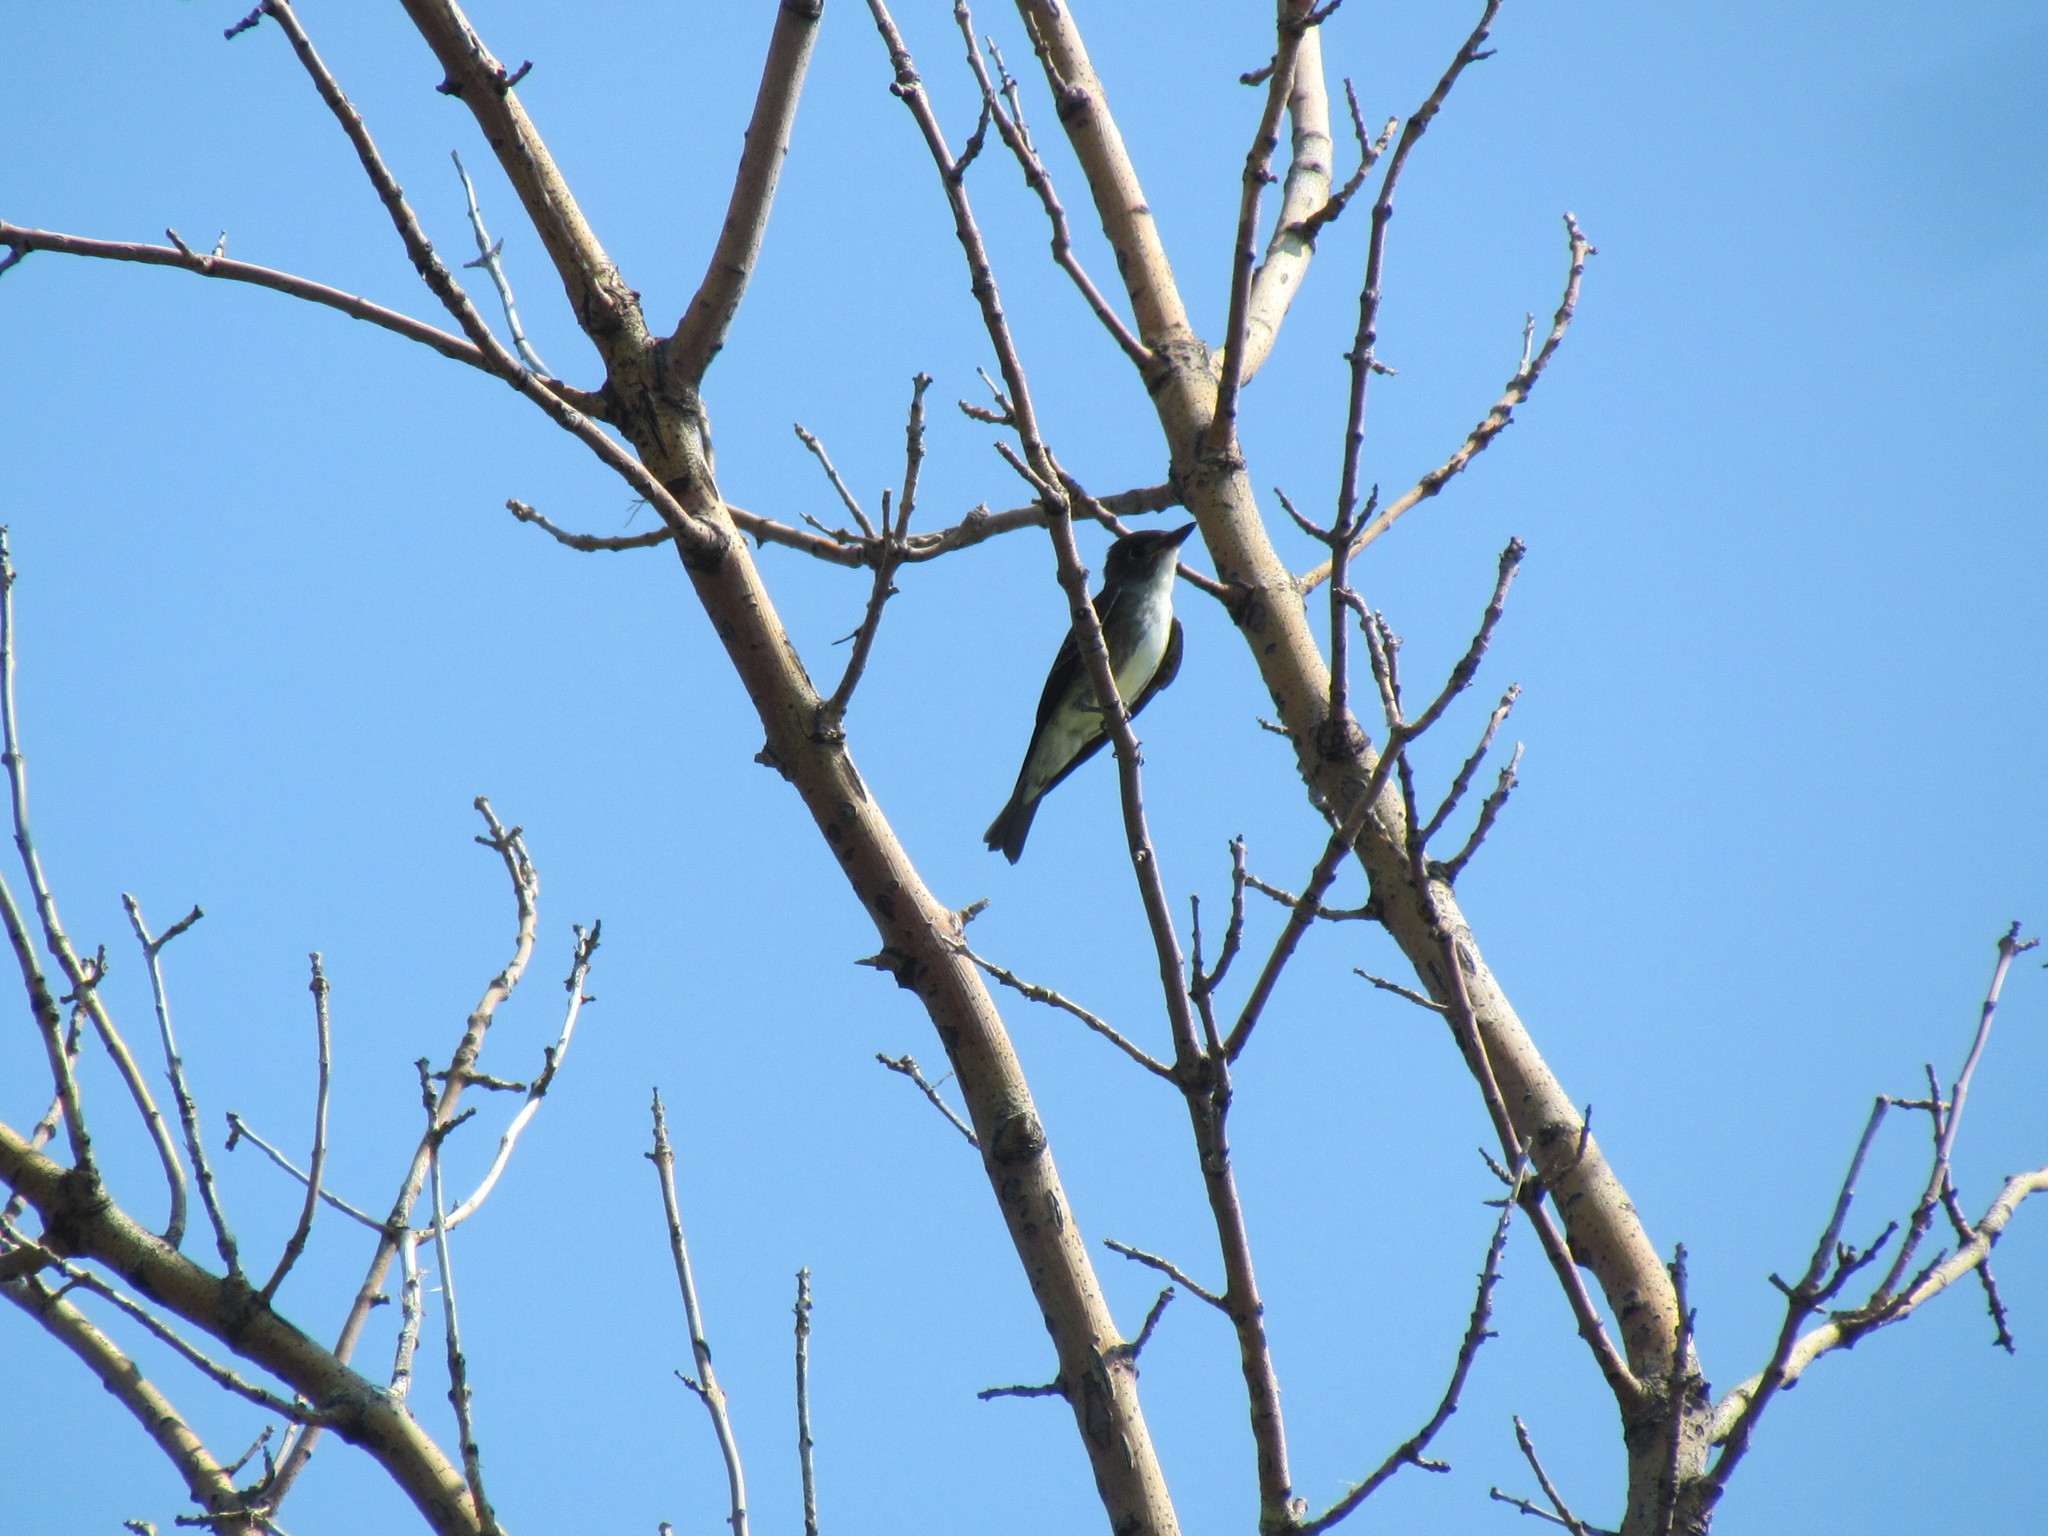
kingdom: Animalia
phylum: Chordata
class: Aves
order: Passeriformes
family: Tyrannidae
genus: Contopus
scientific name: Contopus cooperi
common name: Olive-sided flycatcher
